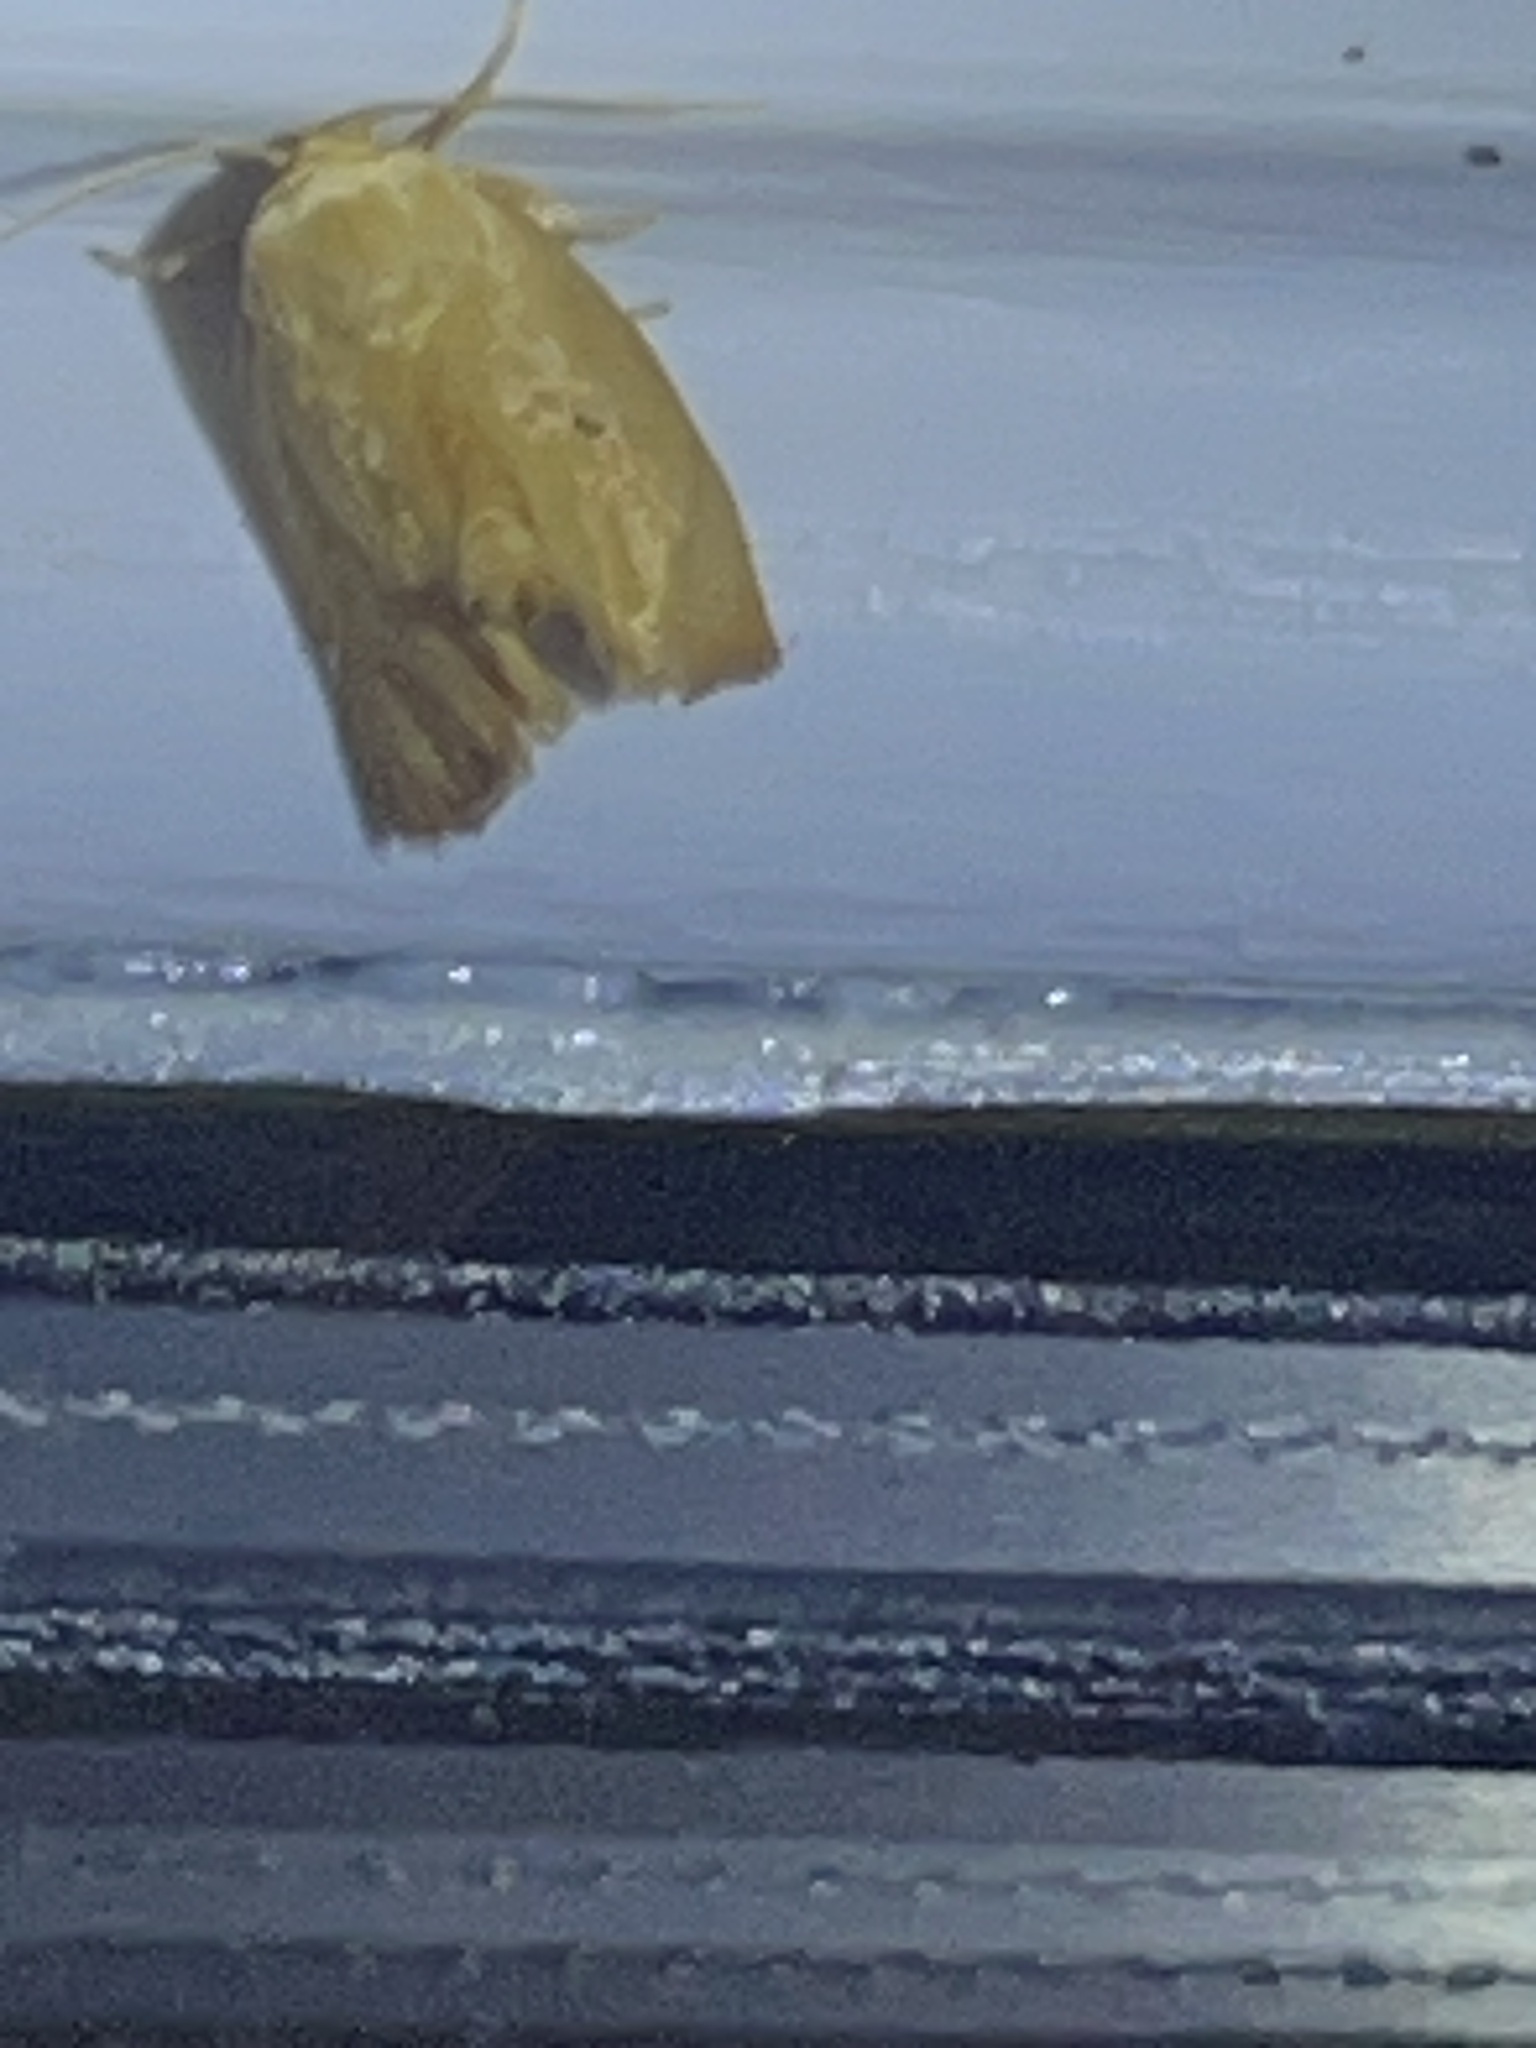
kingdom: Animalia
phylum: Arthropoda
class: Insecta
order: Lepidoptera
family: Limacodidae
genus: Tortricidia
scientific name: Tortricidia pallida
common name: Red-crossed button slug moth
